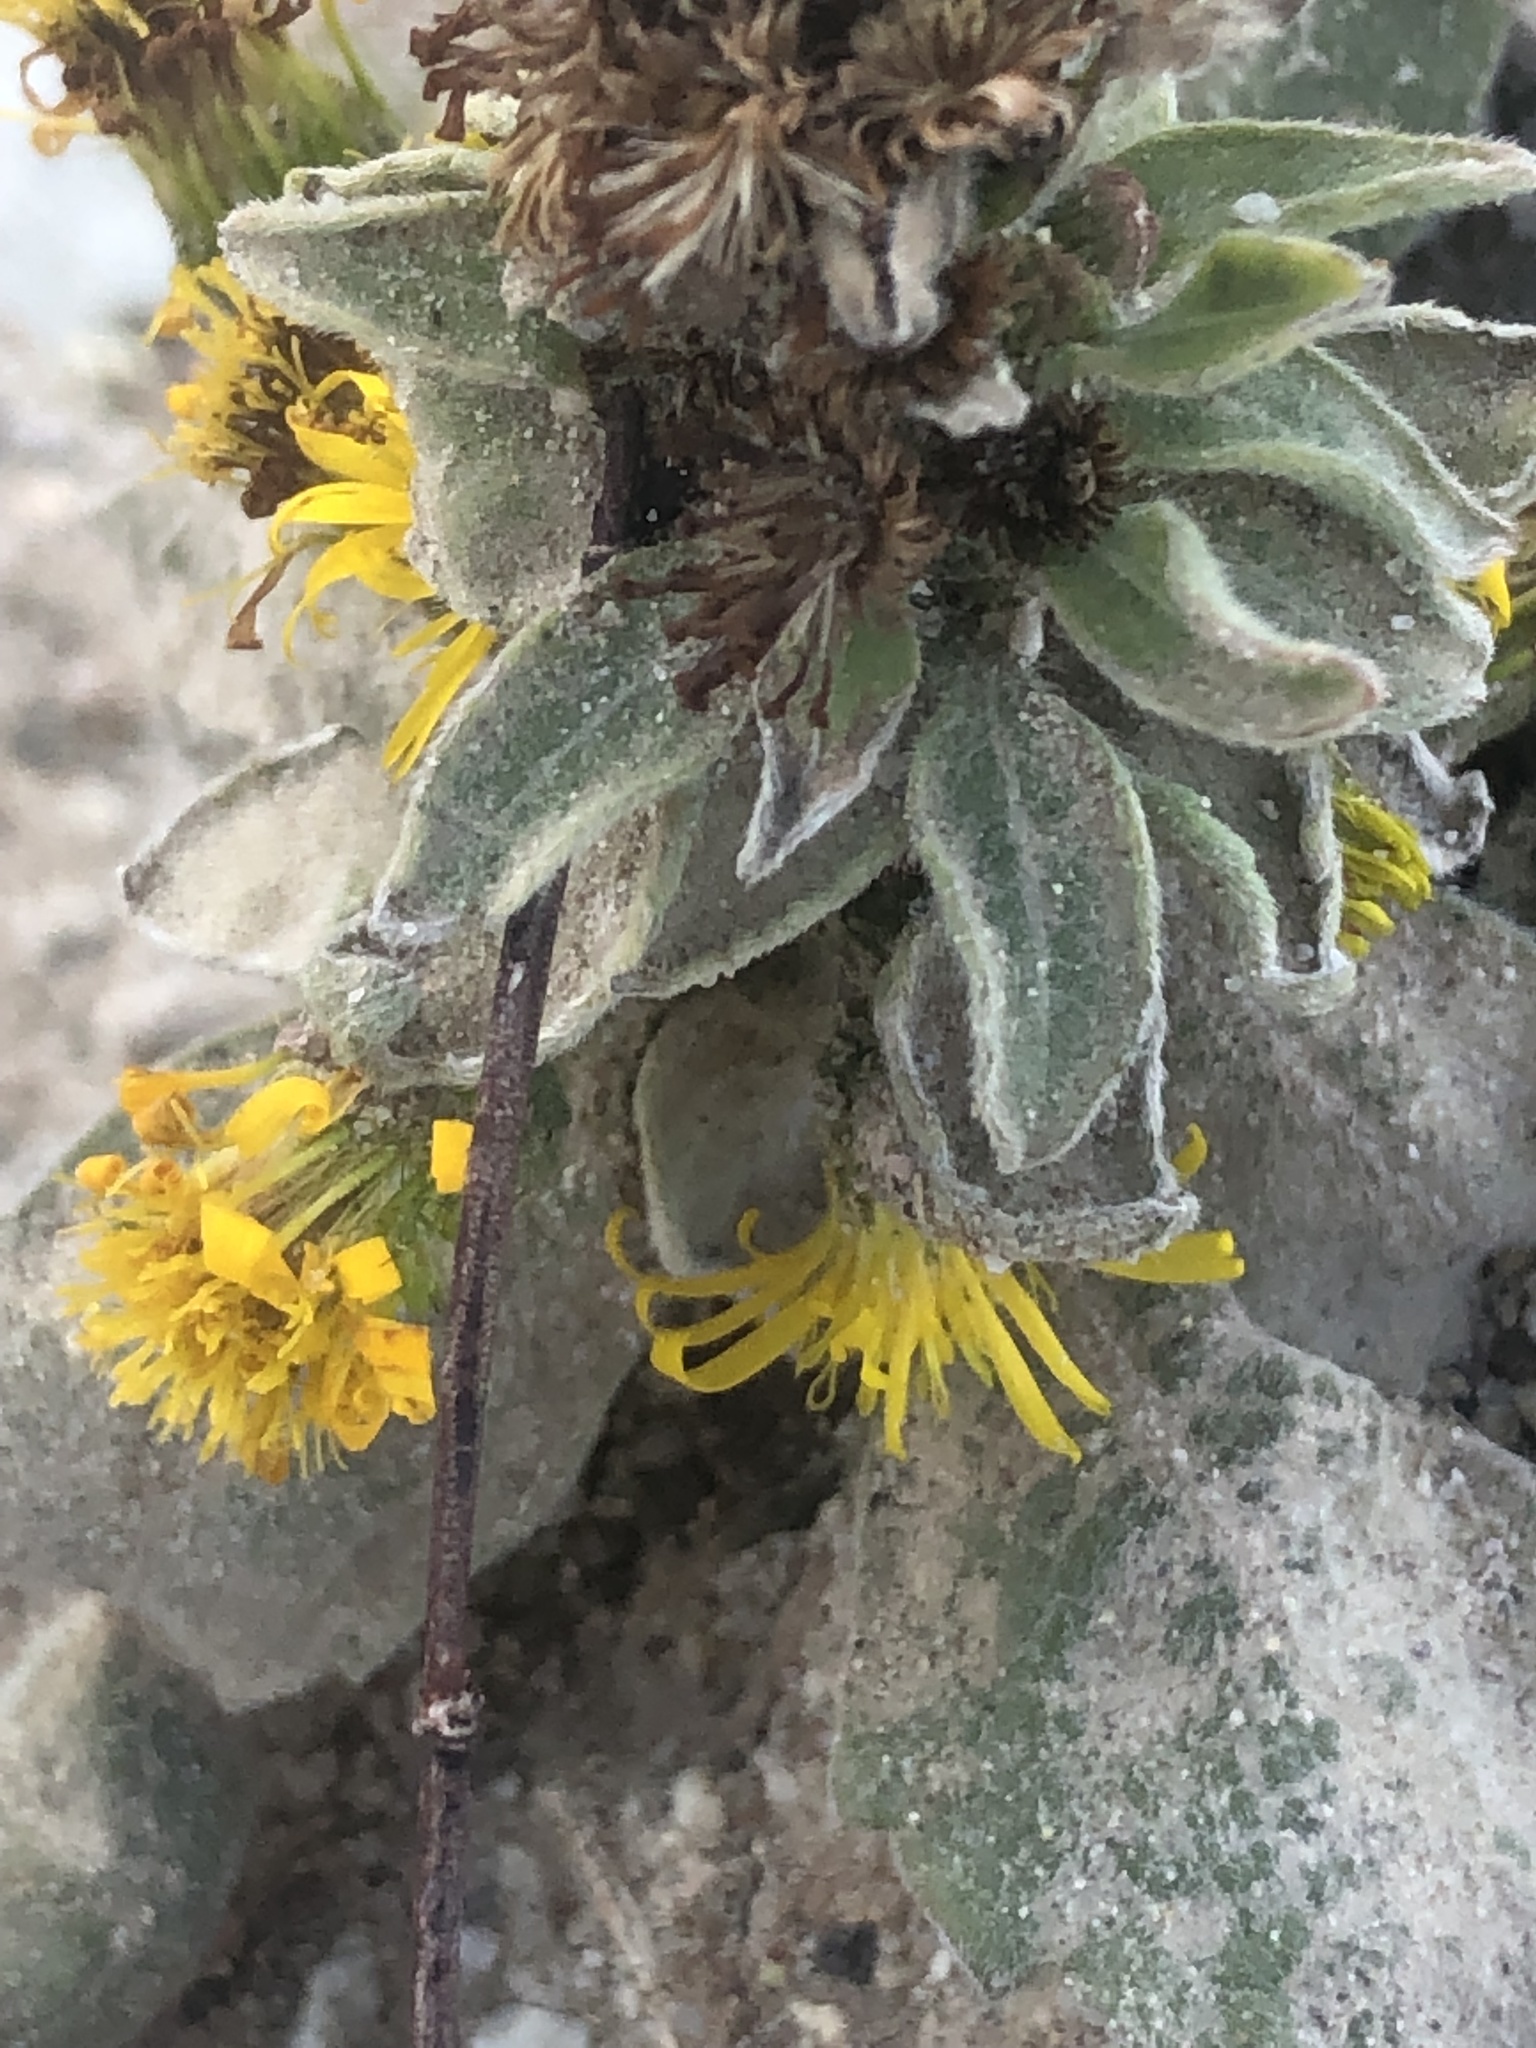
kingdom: Plantae
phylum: Tracheophyta
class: Magnoliopsida
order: Asterales
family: Asteraceae
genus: Heterotheca
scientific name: Heterotheca sessiliflora
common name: Sessile-flower golden-aster
